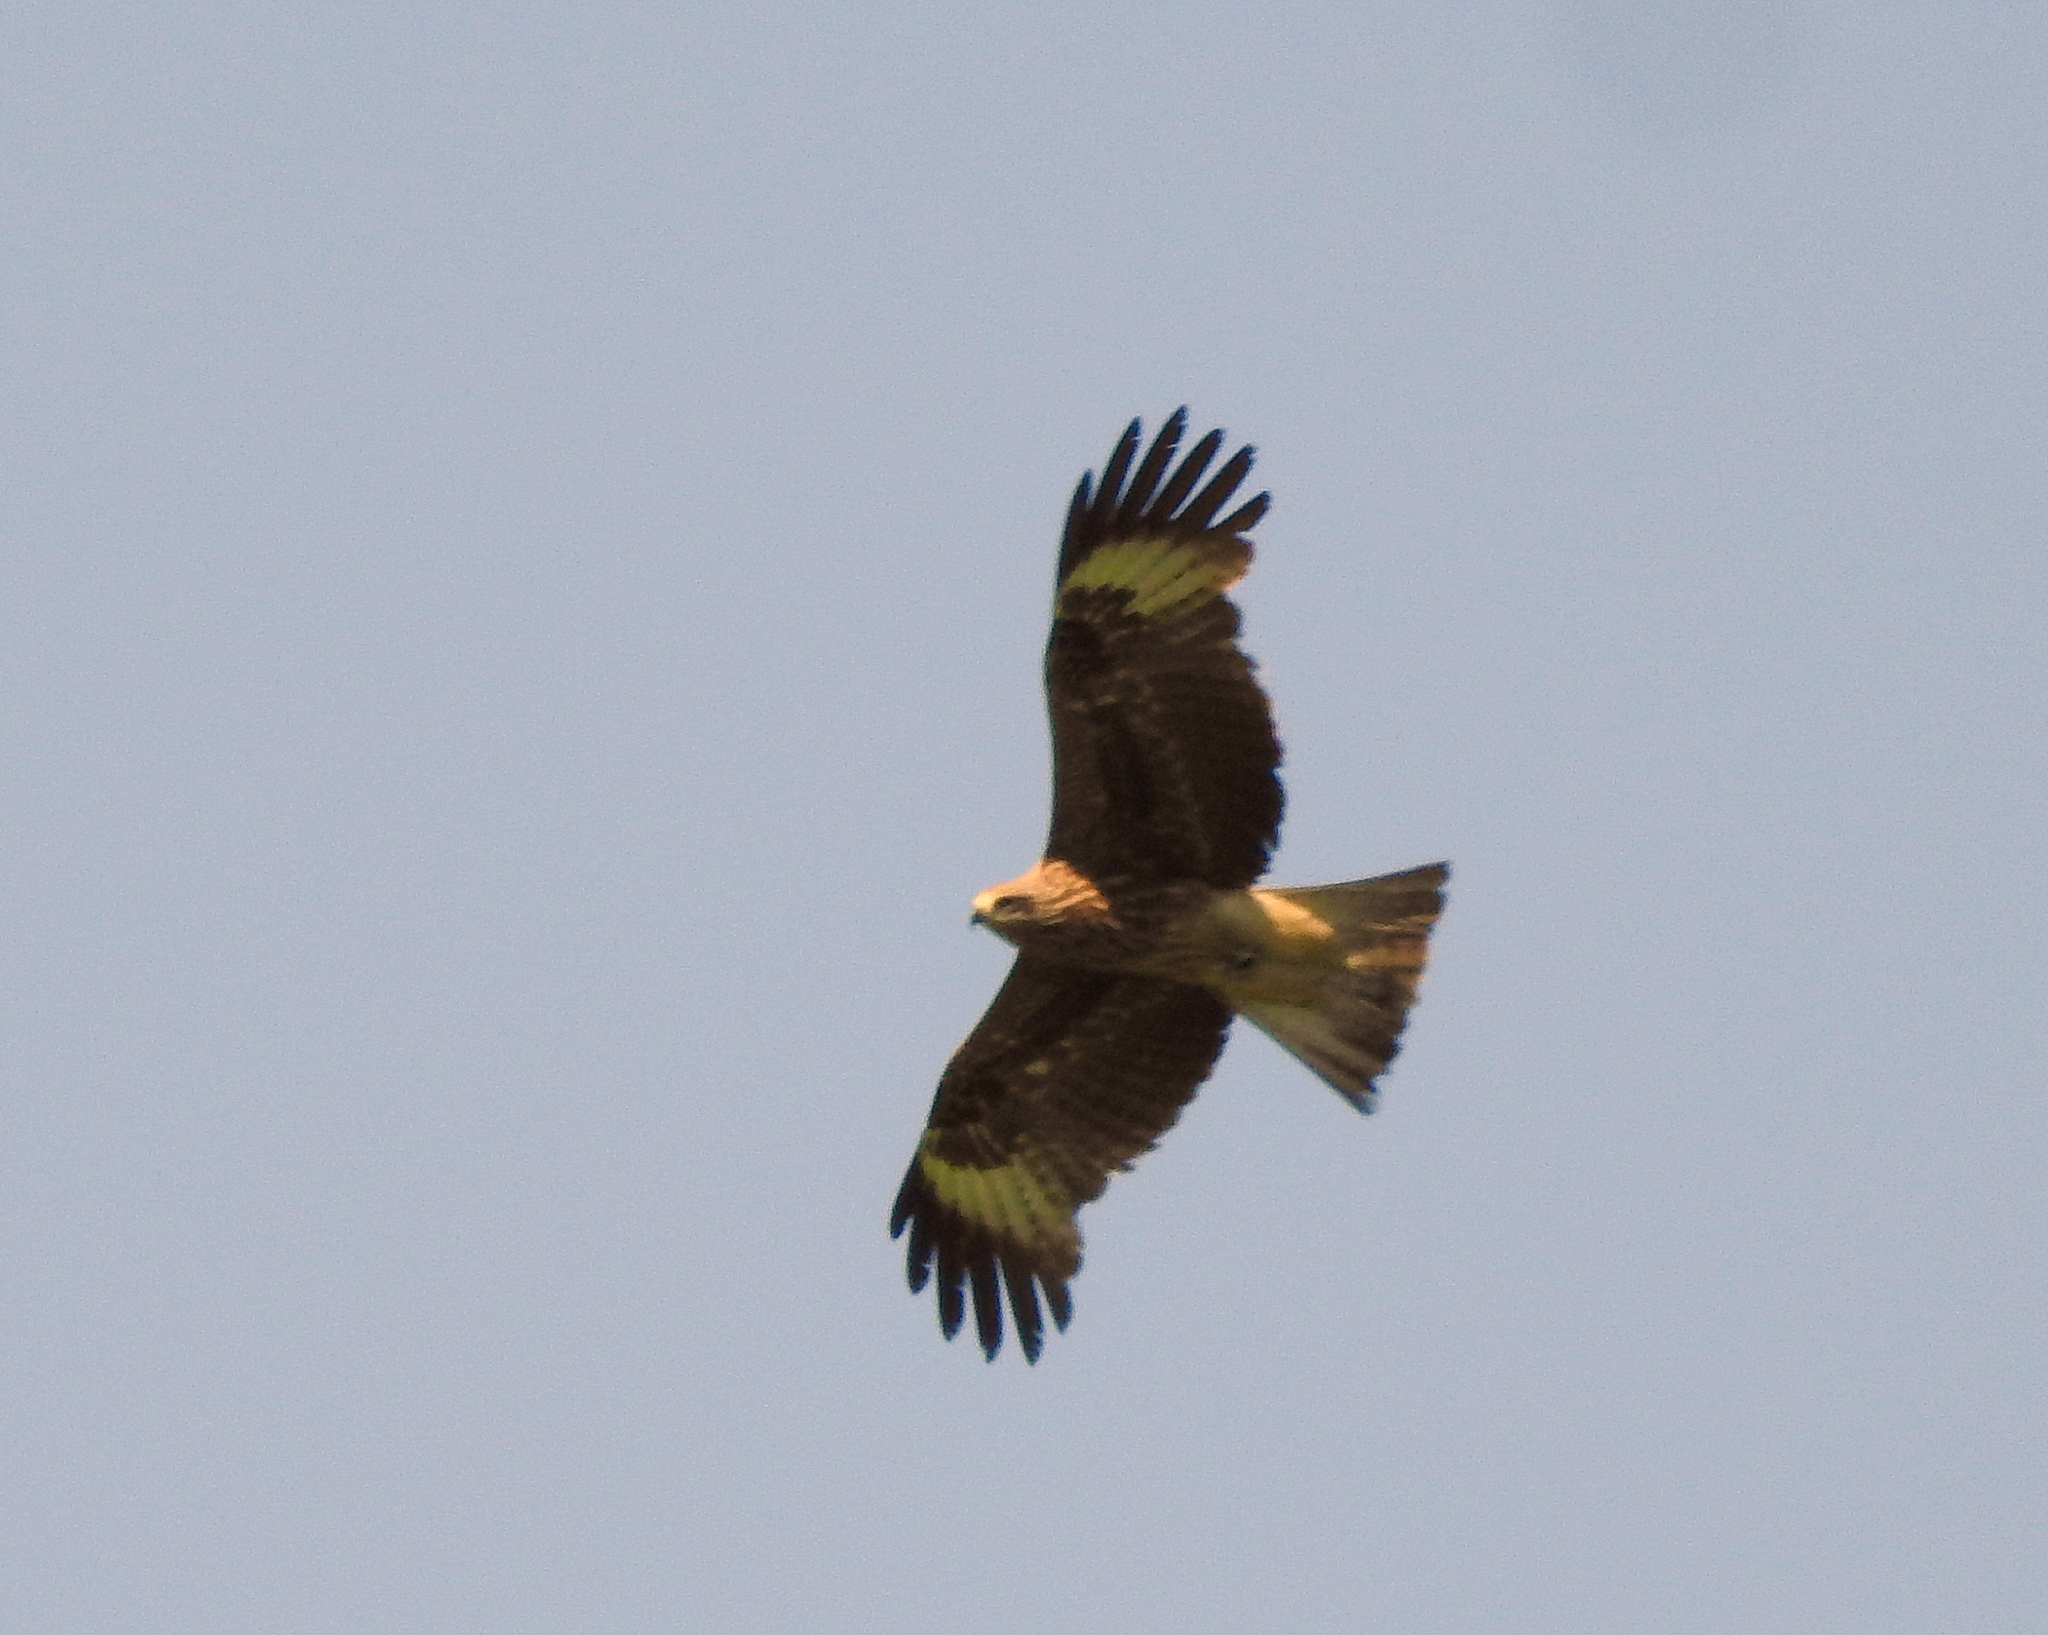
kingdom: Animalia
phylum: Chordata
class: Aves
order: Accipitriformes
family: Accipitridae
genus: Milvus
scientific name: Milvus migrans
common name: Black kite
